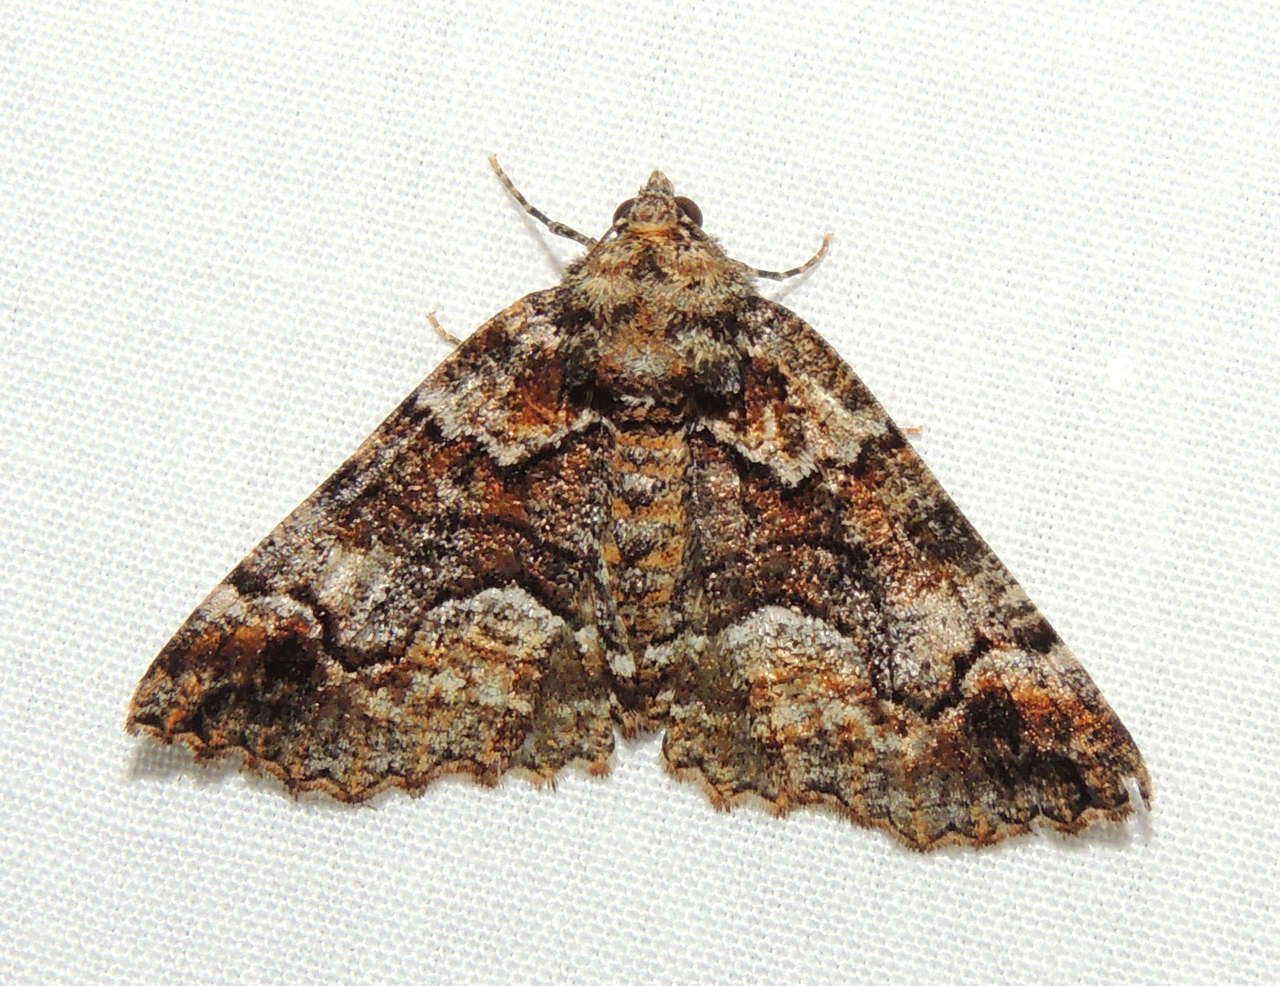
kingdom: Animalia
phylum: Arthropoda
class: Insecta
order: Lepidoptera
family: Geometridae
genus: Gastrina
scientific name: Gastrina cristaria
